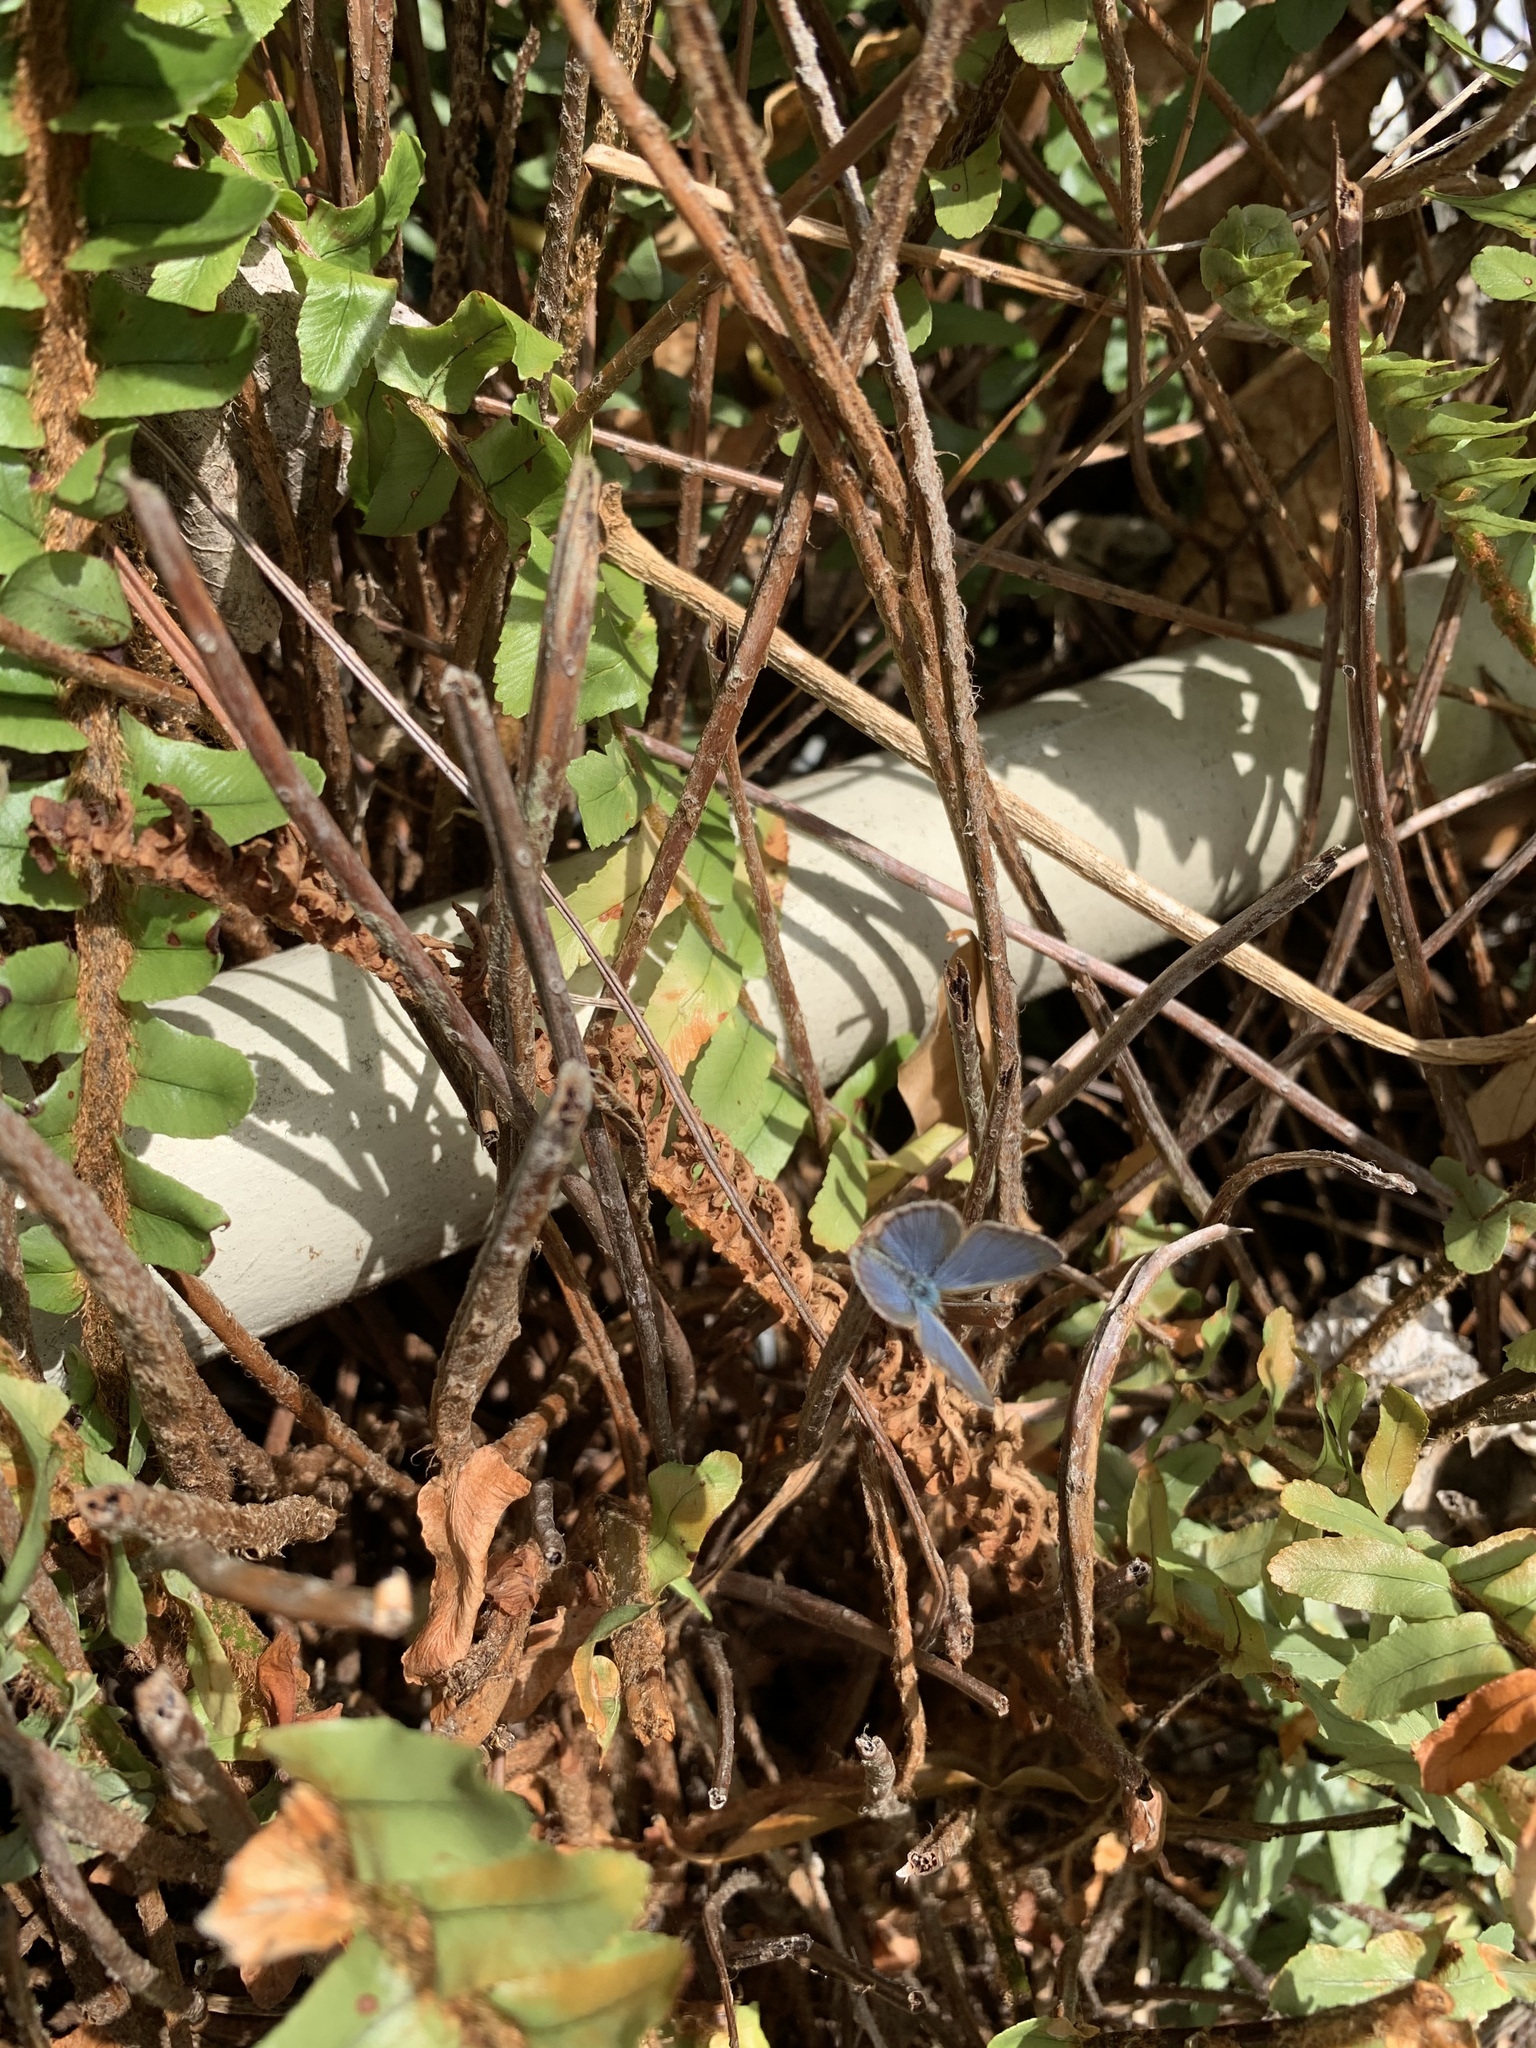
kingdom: Animalia
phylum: Arthropoda
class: Insecta
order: Lepidoptera
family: Lycaenidae
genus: Zizina
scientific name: Zizina labradus
